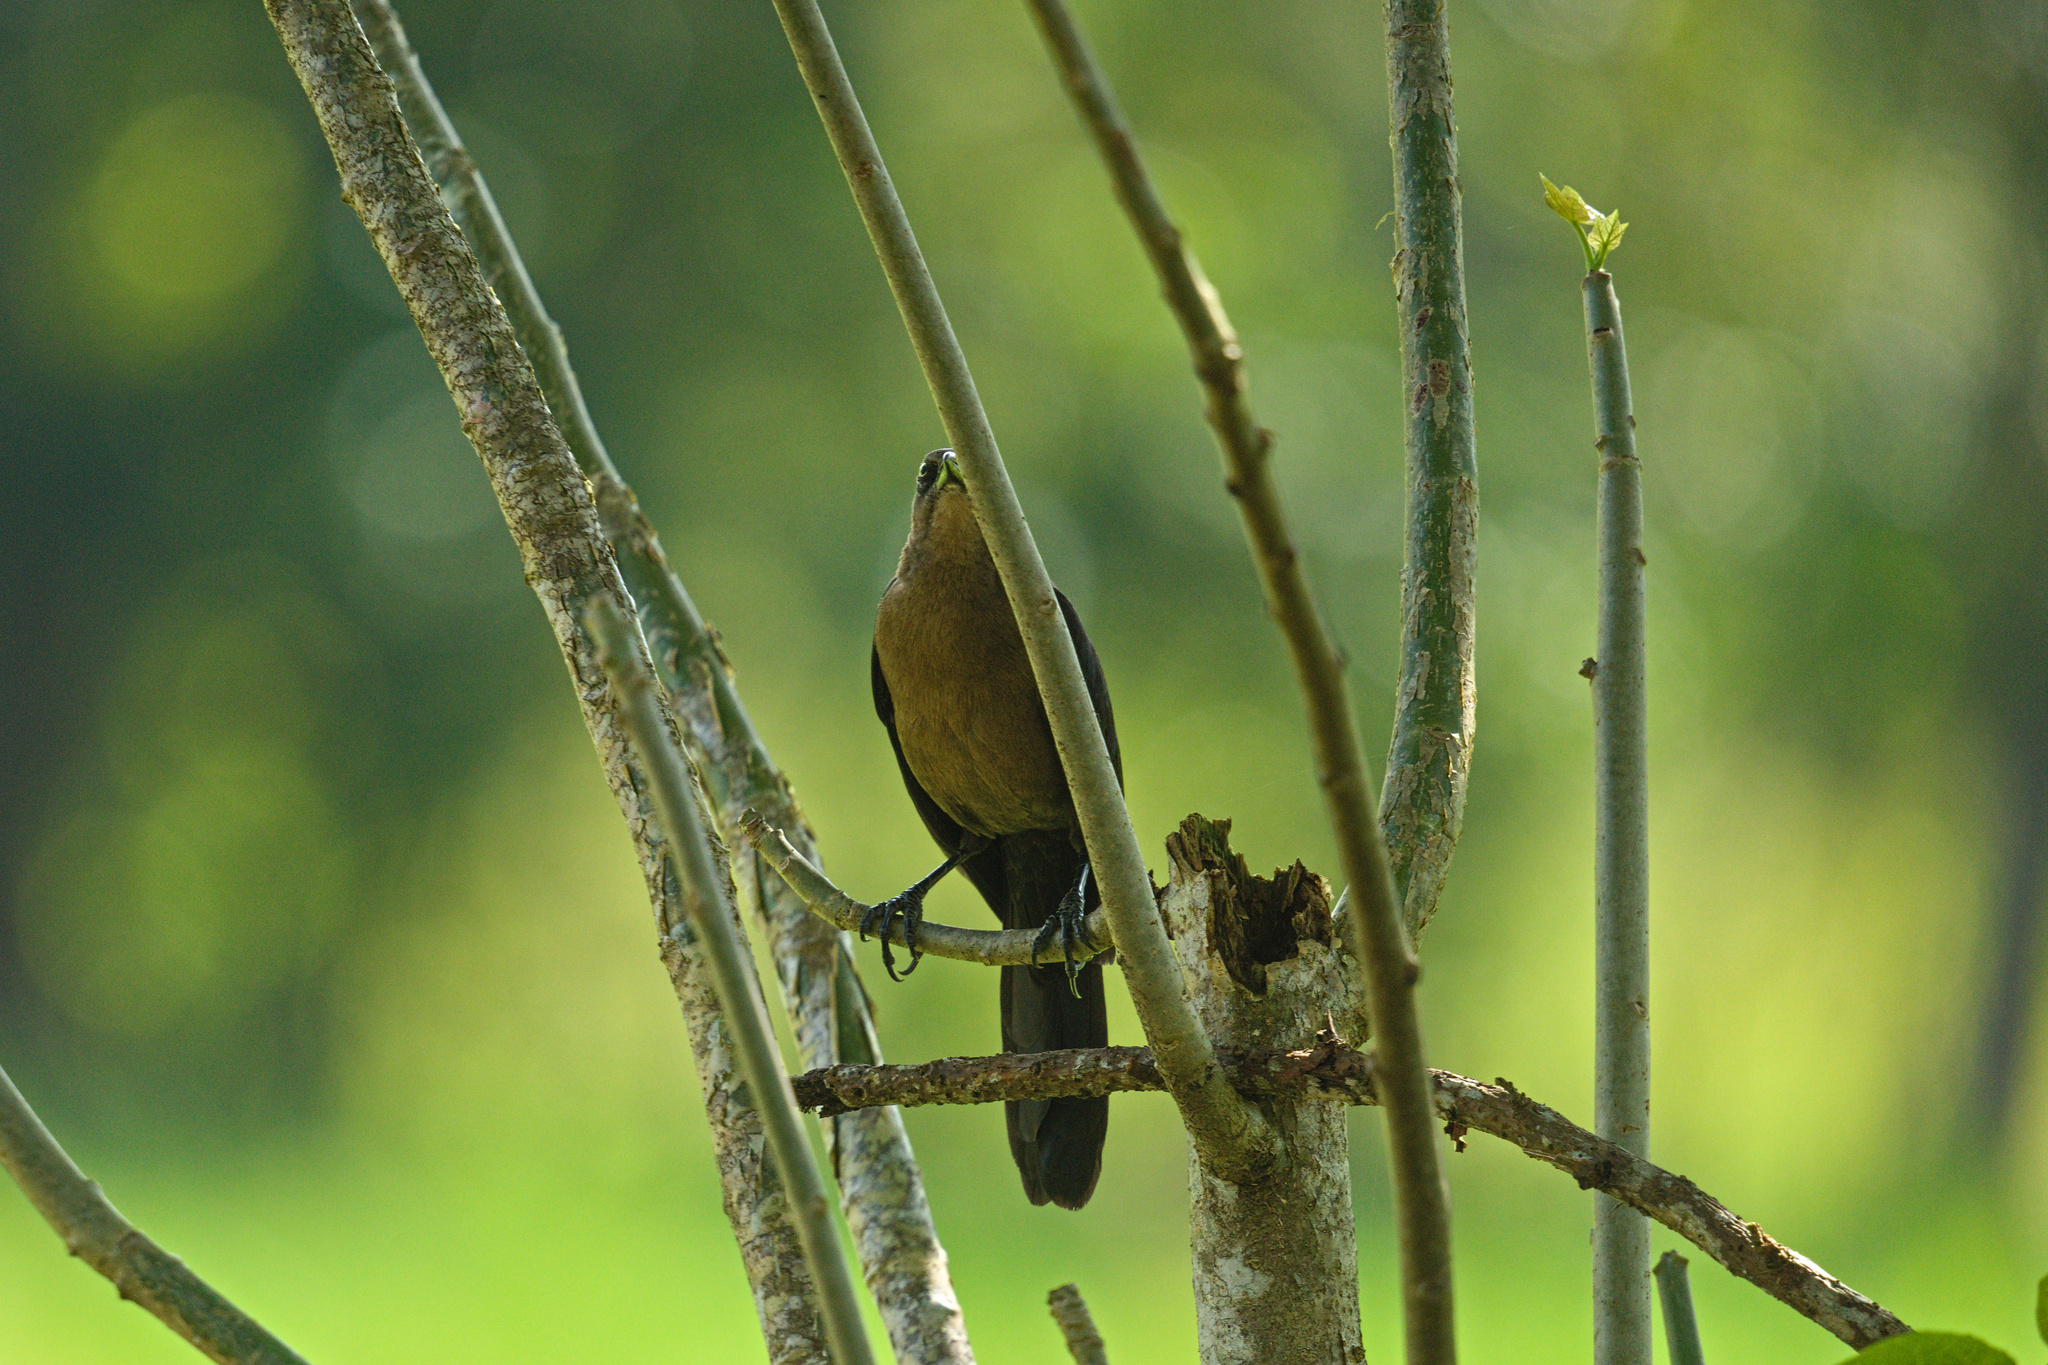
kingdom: Animalia
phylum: Chordata
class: Aves
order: Passeriformes
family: Icteridae
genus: Quiscalus
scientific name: Quiscalus mexicanus
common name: Great-tailed grackle
